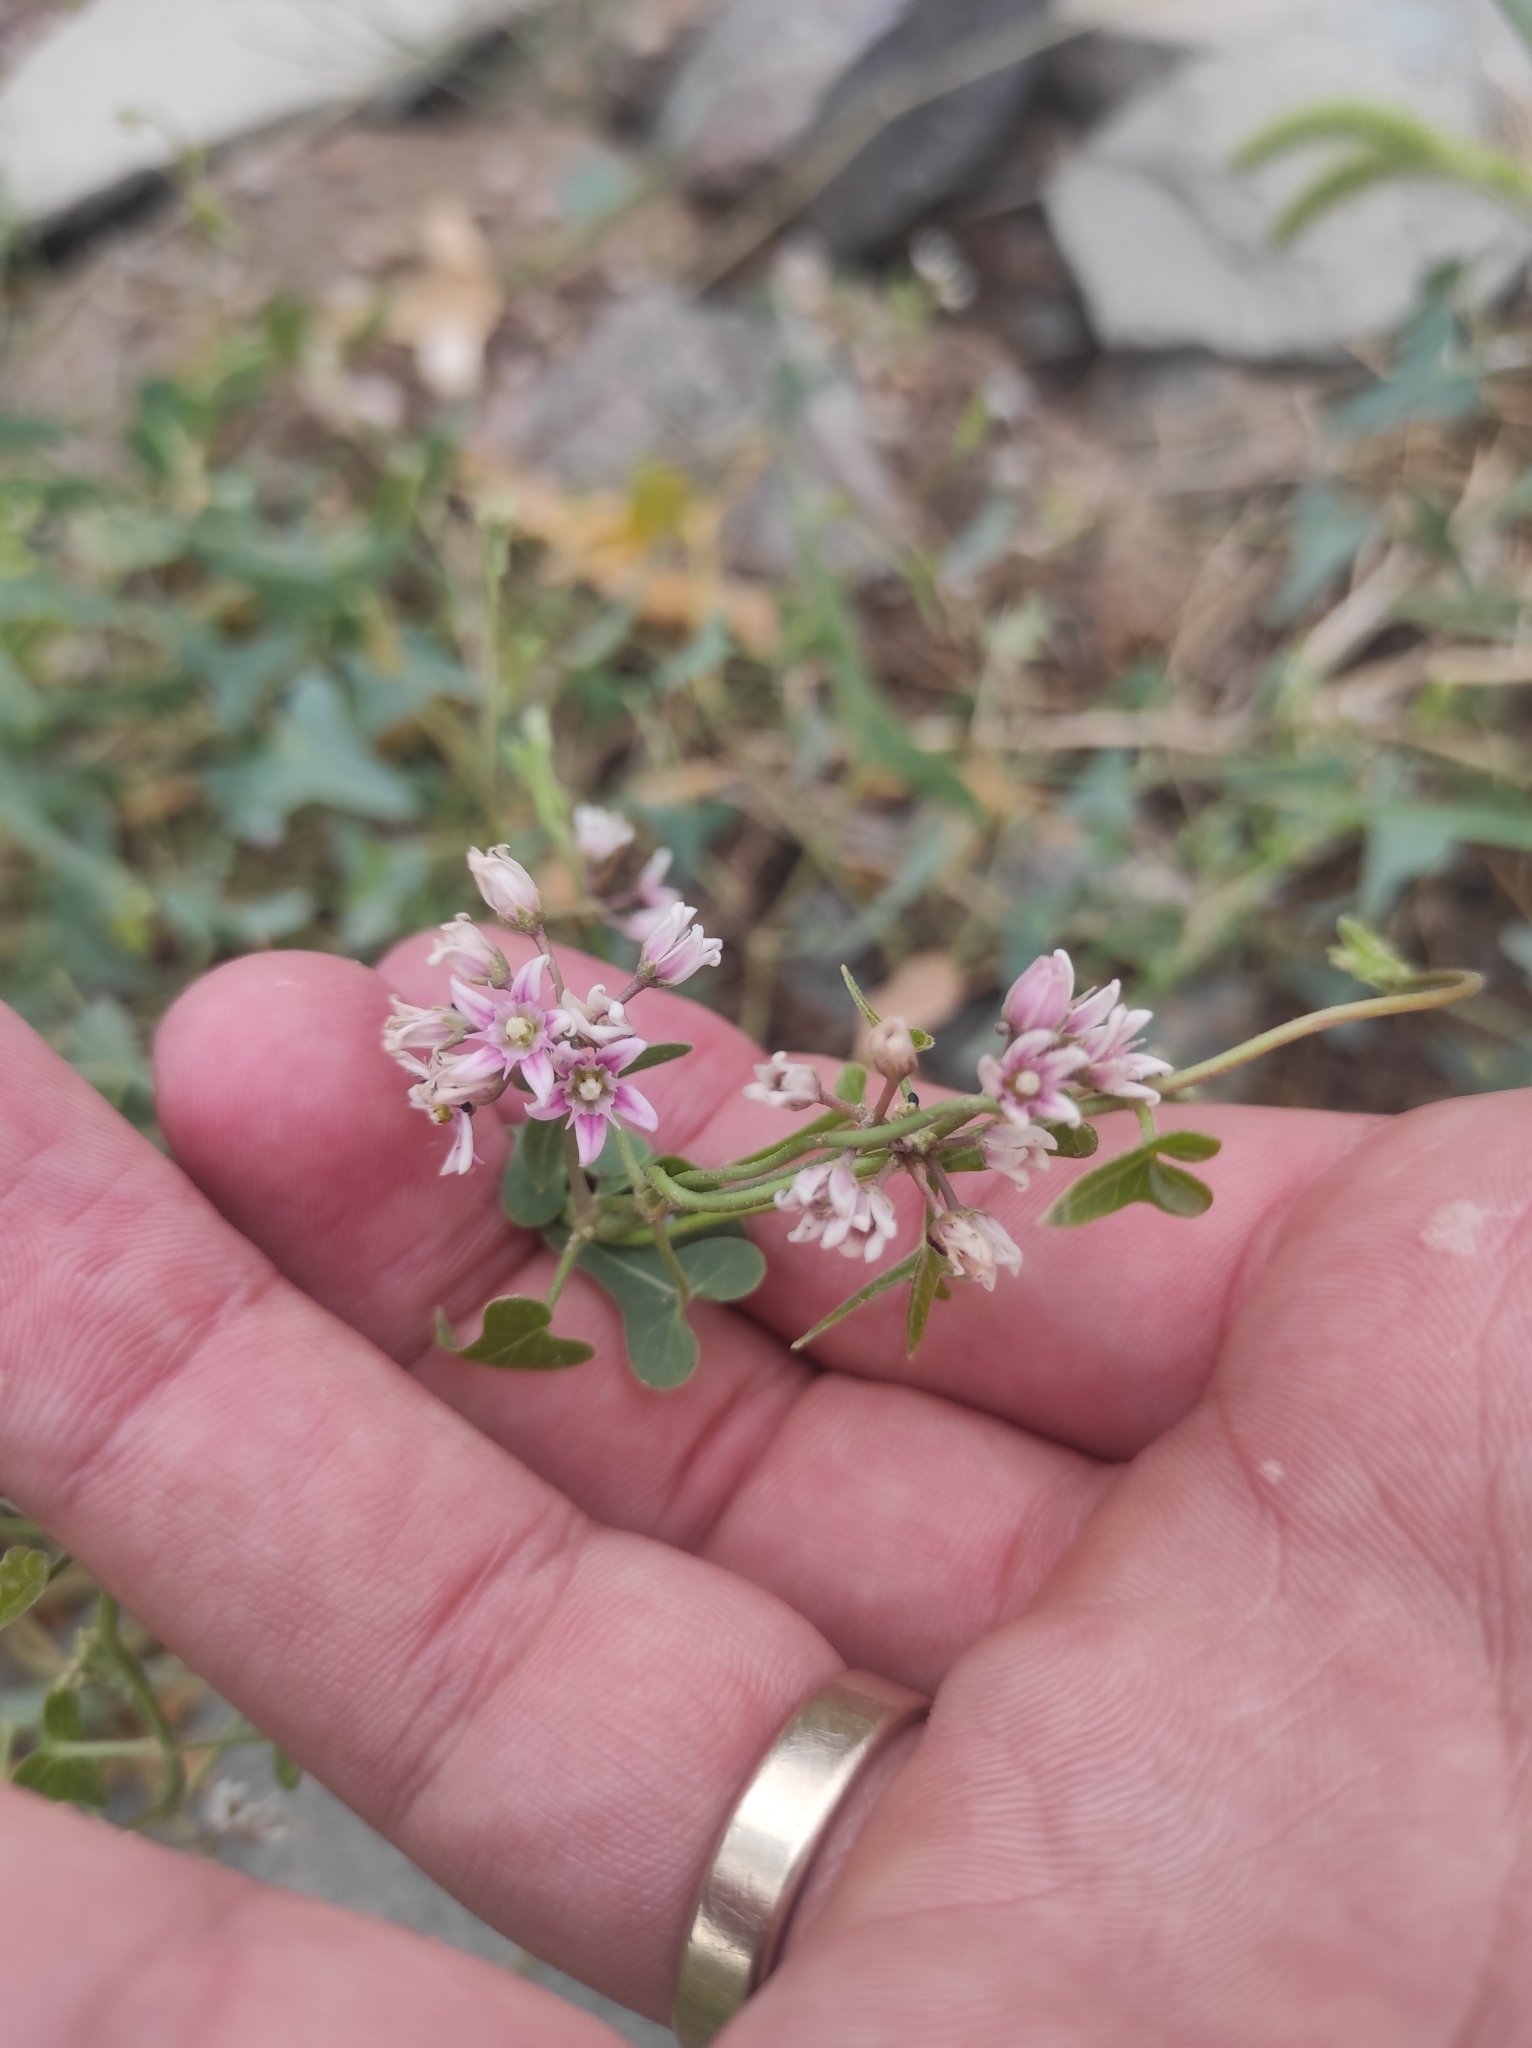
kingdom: Plantae
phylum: Tracheophyta
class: Magnoliopsida
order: Gentianales
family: Apocynaceae
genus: Cynanchum
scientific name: Cynanchum acutum
